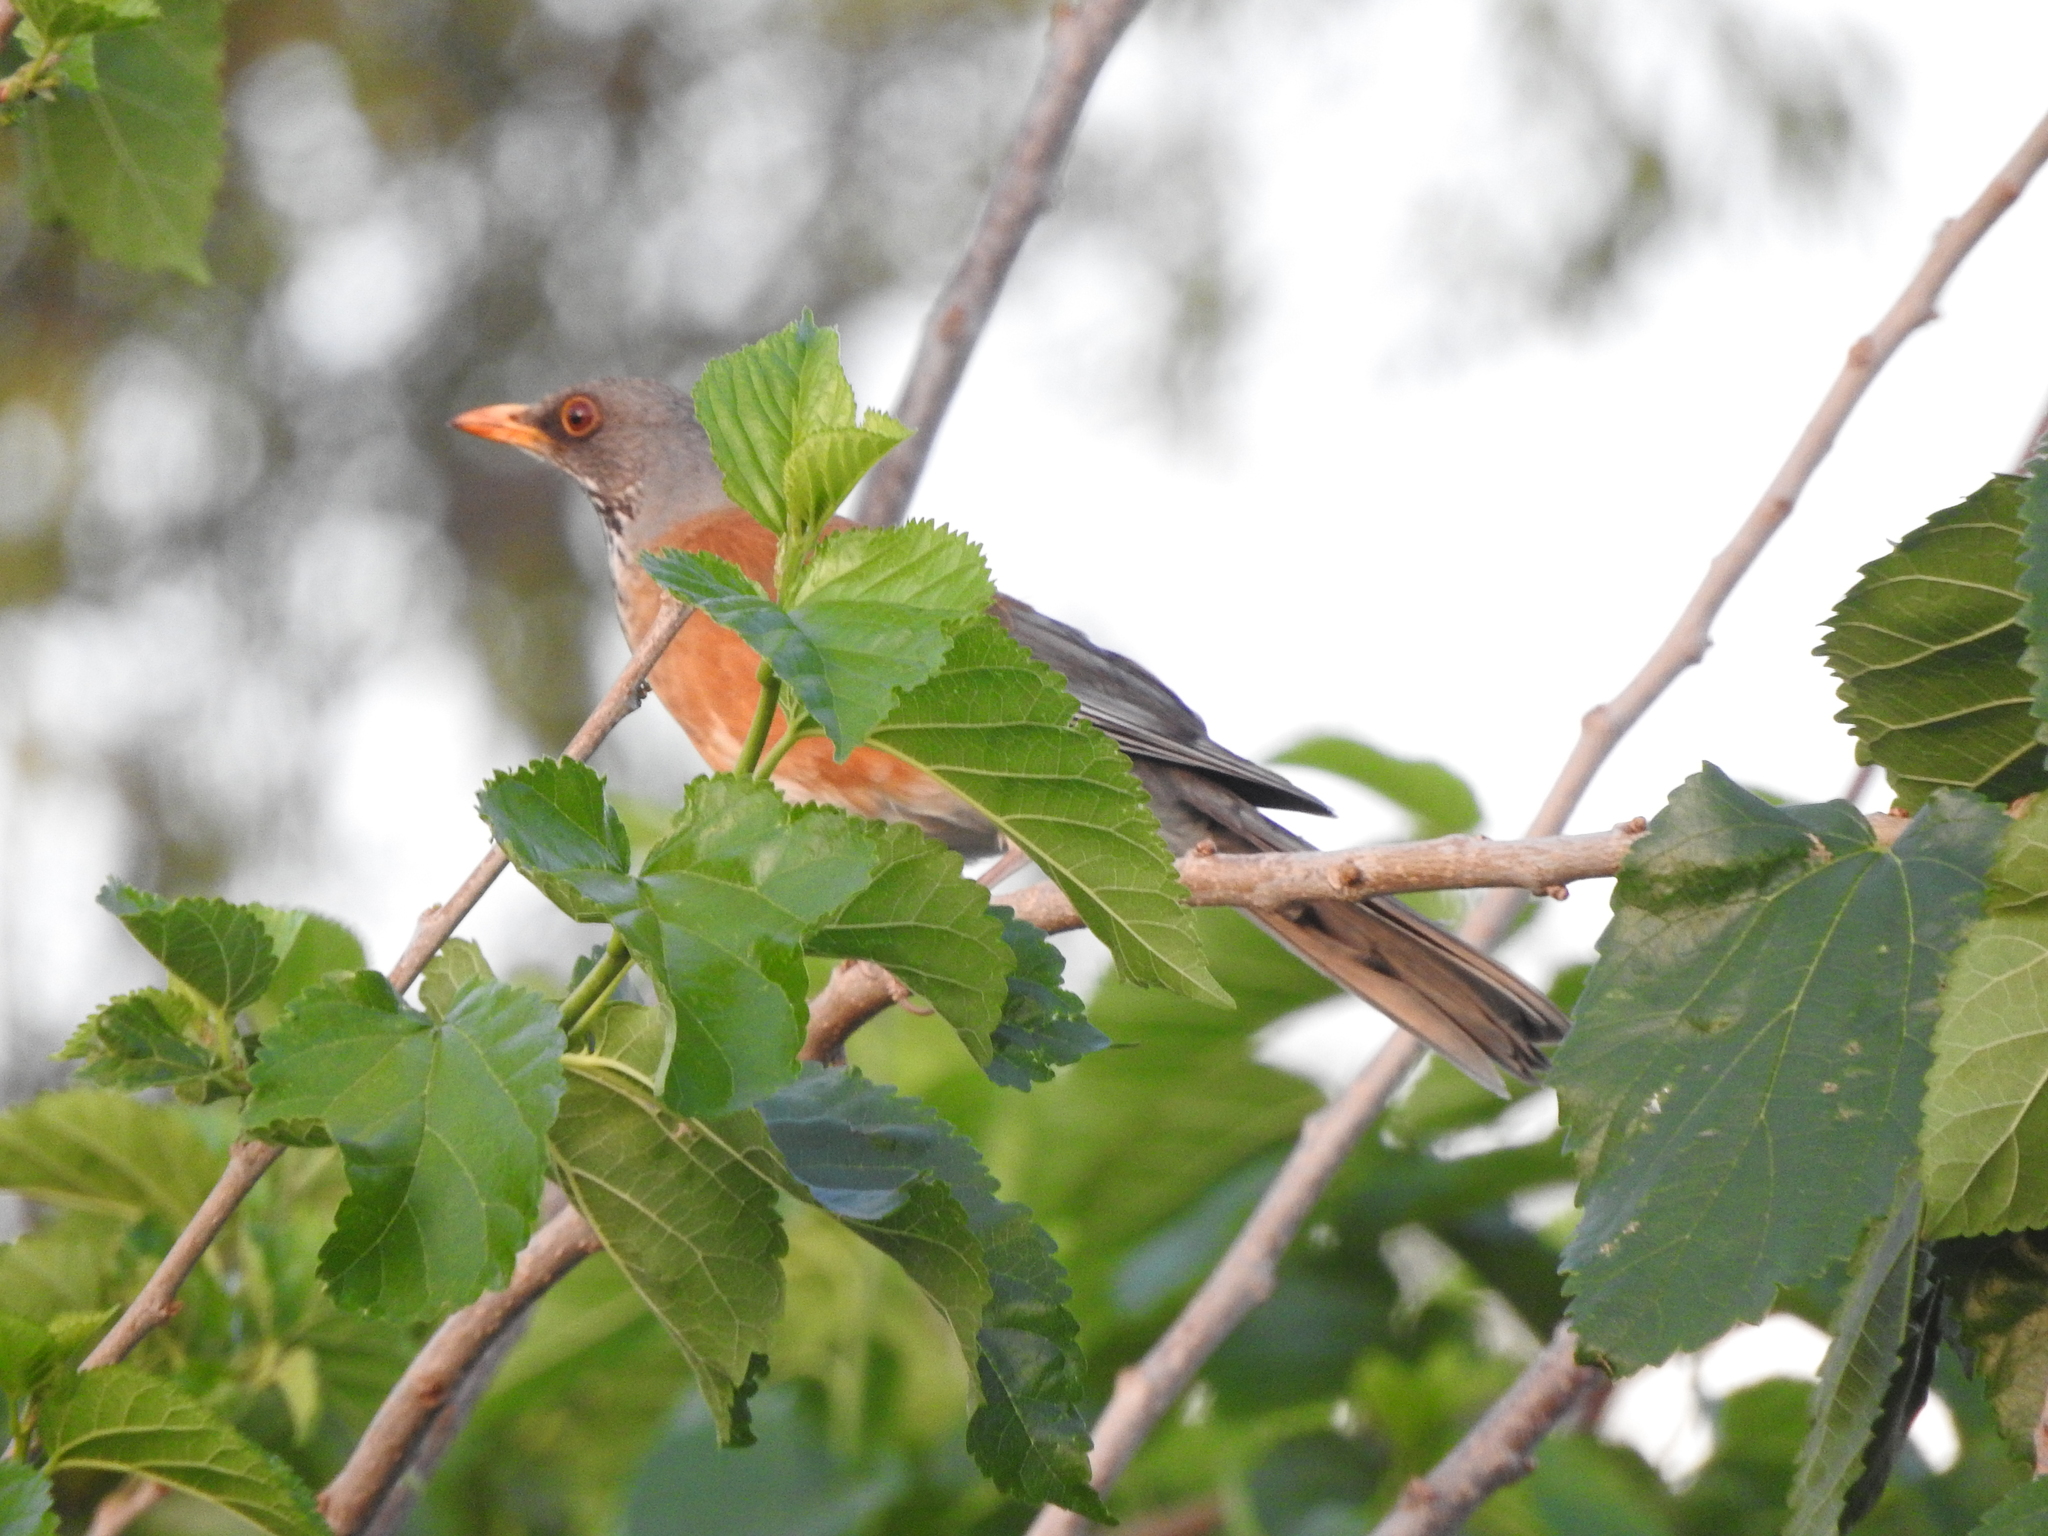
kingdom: Animalia
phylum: Chordata
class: Aves
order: Passeriformes
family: Turdidae
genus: Turdus
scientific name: Turdus rufopalliatus
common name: Rufous-backed robin
